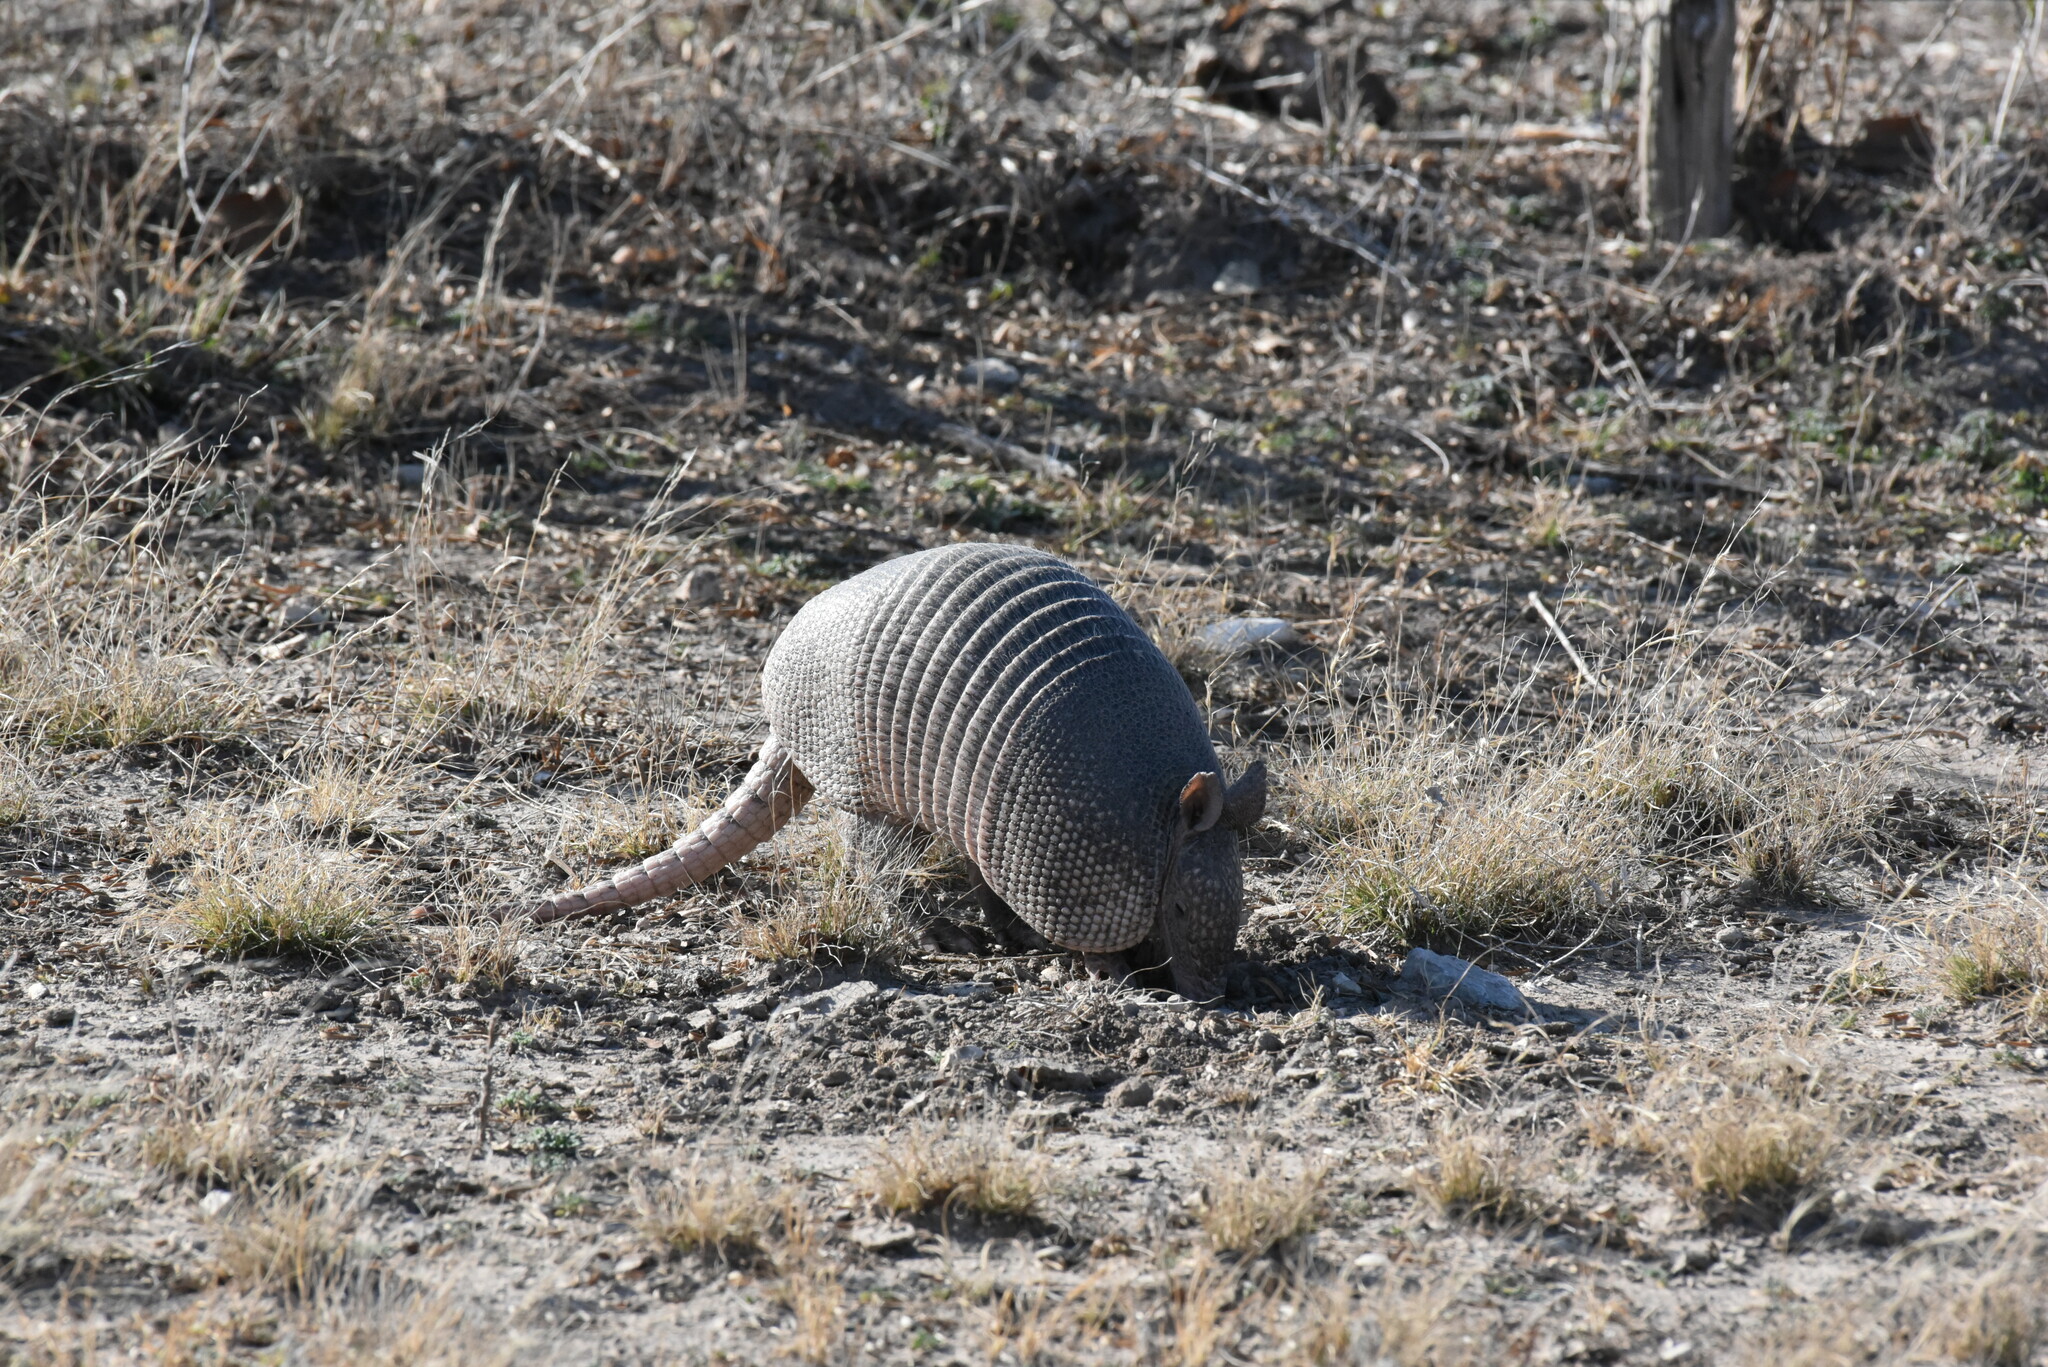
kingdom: Animalia
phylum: Chordata
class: Mammalia
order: Cingulata
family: Dasypodidae
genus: Dasypus
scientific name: Dasypus novemcinctus
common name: Nine-banded armadillo
